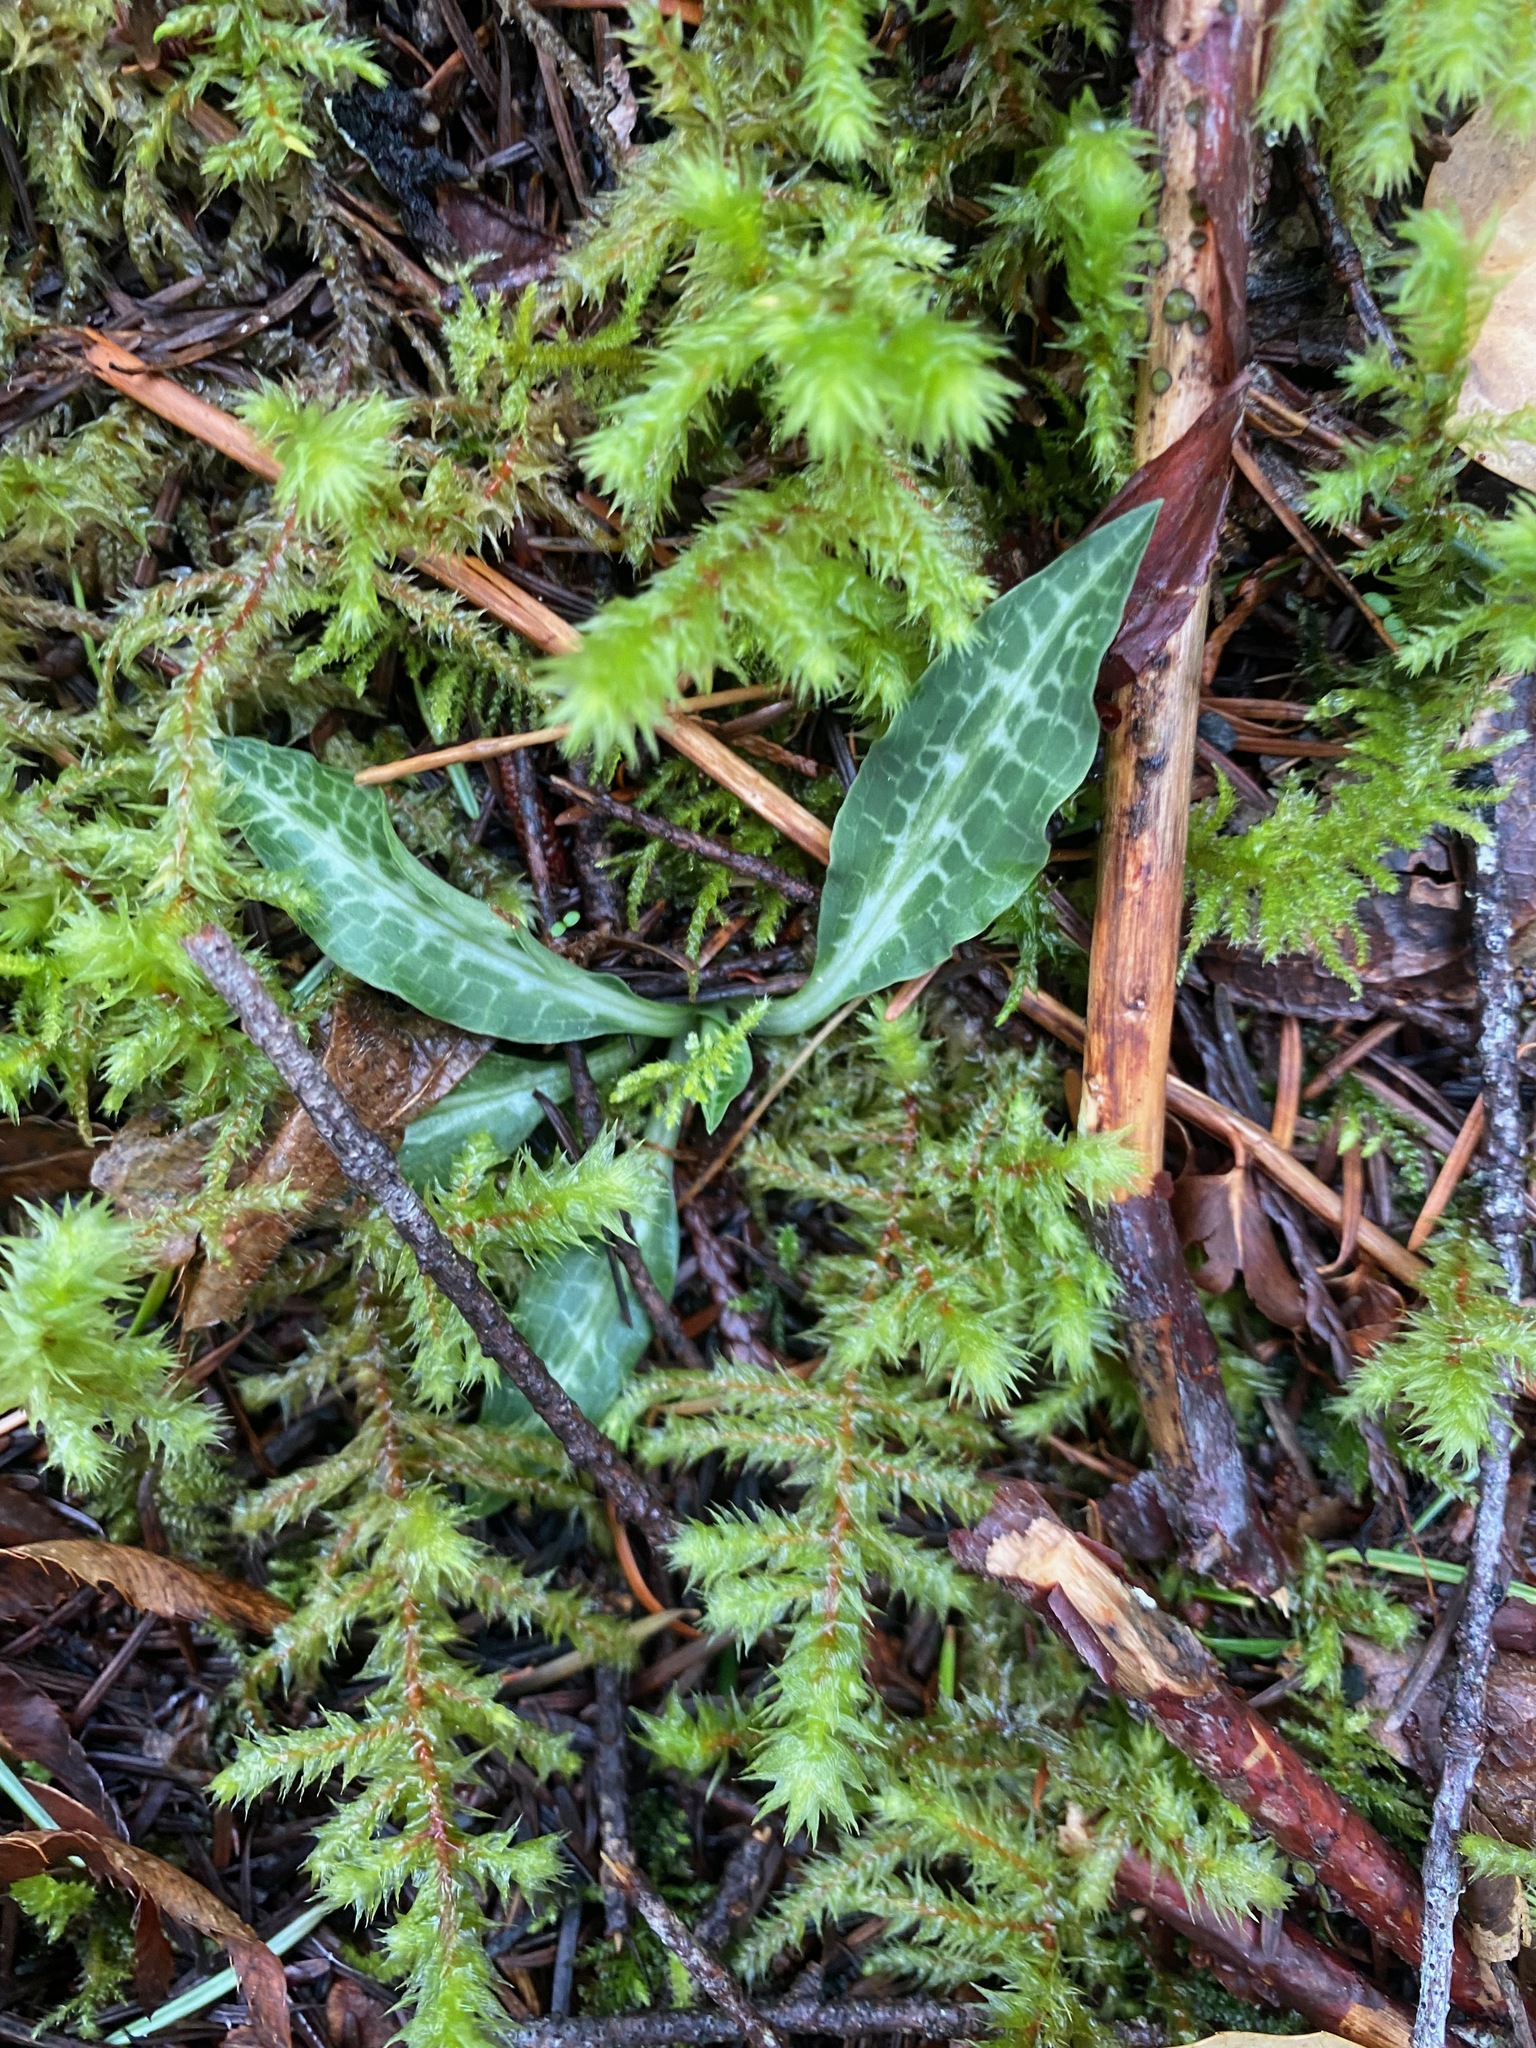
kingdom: Plantae
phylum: Tracheophyta
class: Liliopsida
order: Asparagales
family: Orchidaceae
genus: Goodyera
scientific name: Goodyera oblongifolia
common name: Giant rattlesnake-plantain
